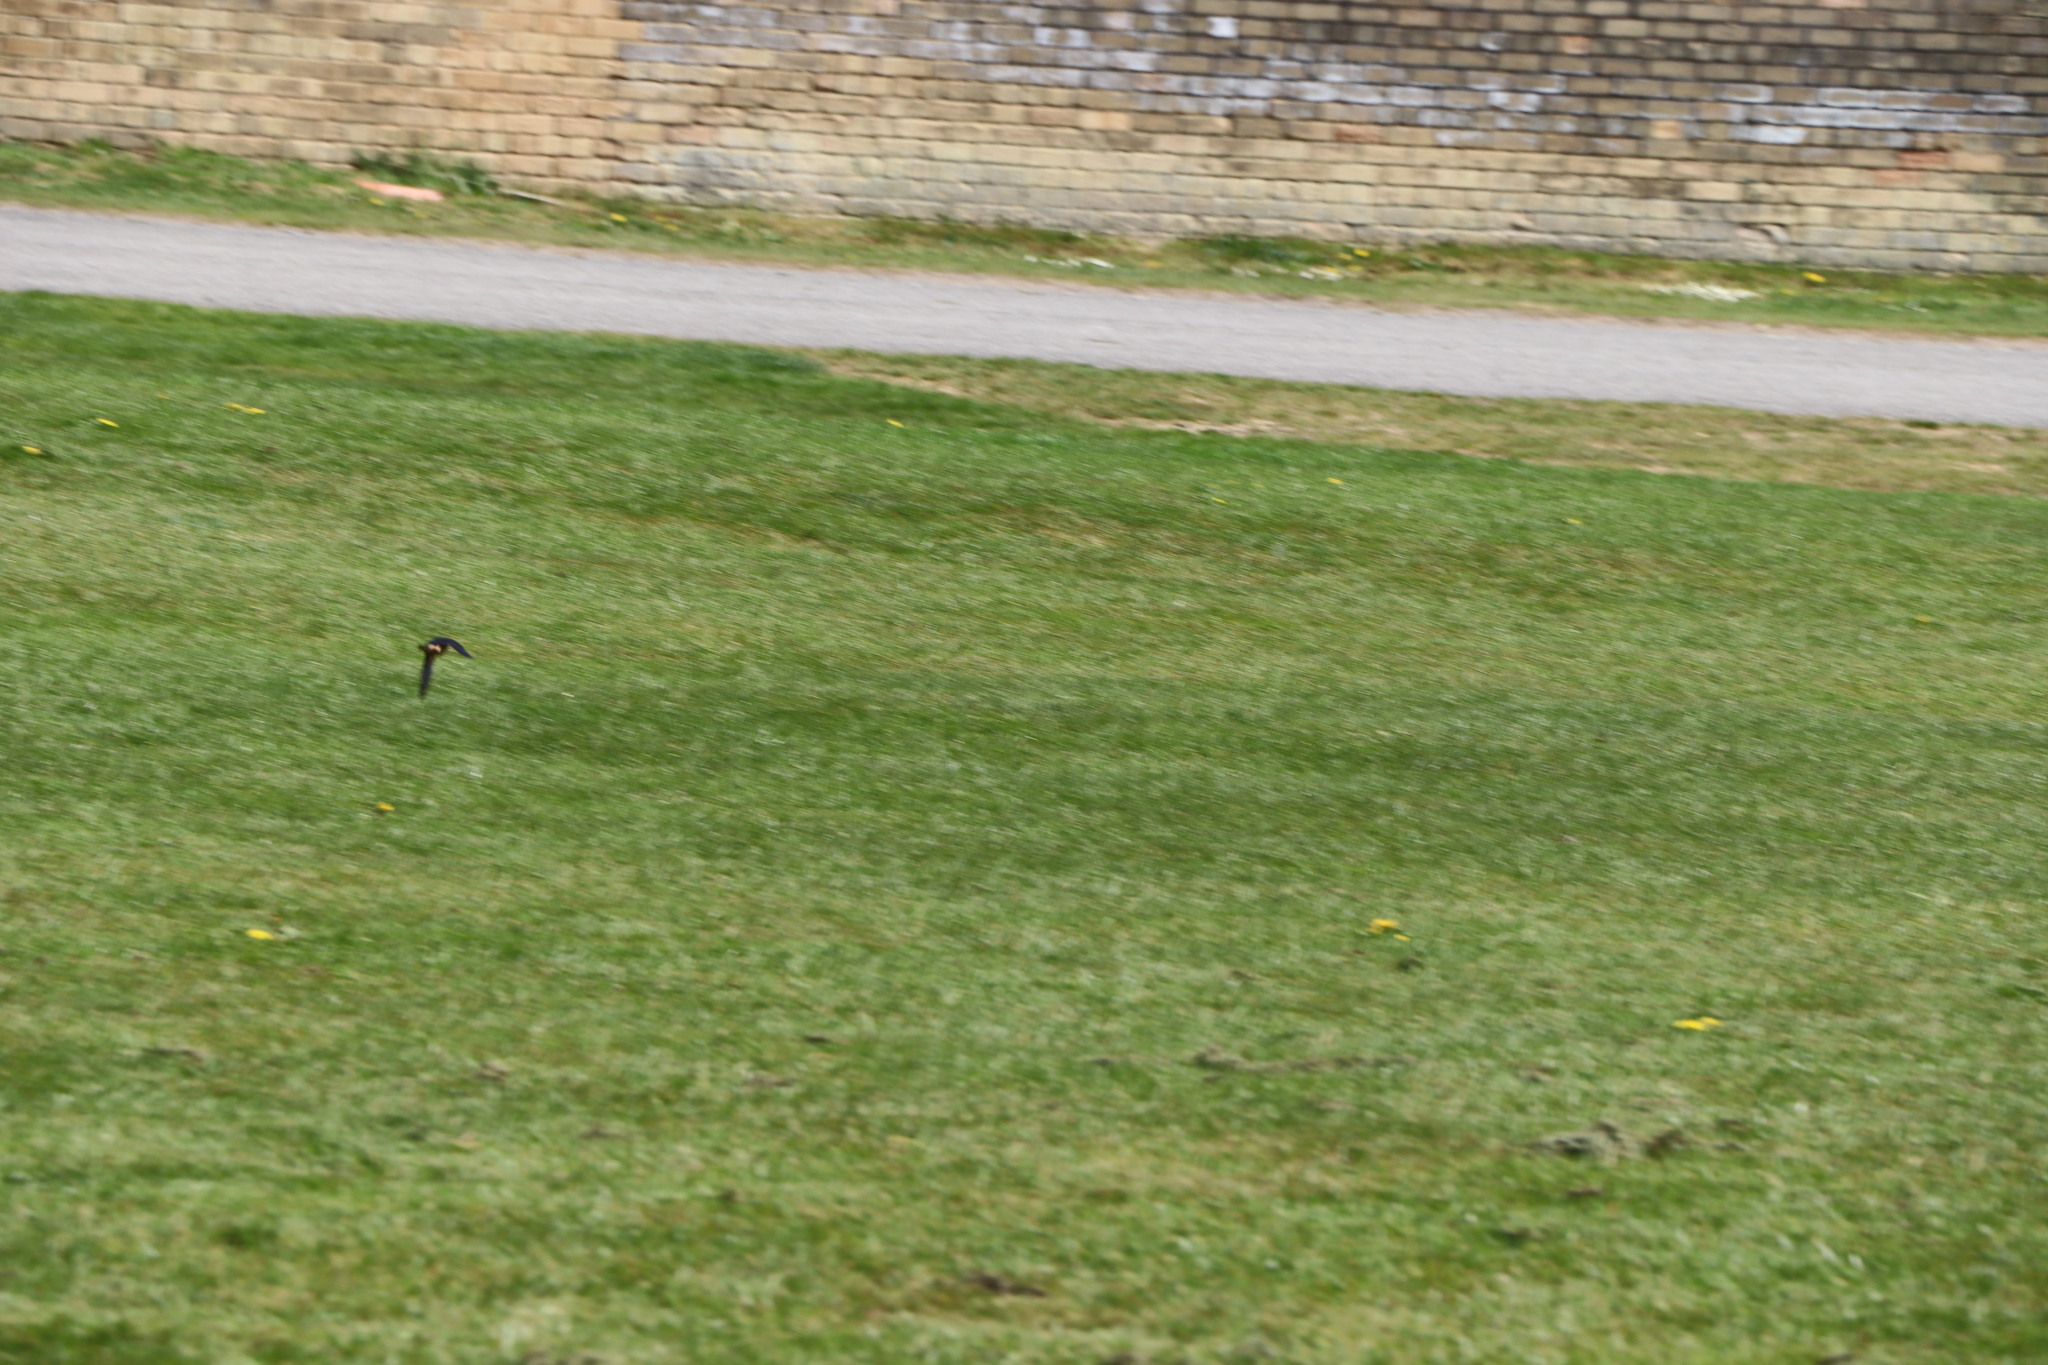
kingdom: Animalia
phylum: Chordata
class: Aves
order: Passeriformes
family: Hirundinidae
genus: Hirundo
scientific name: Hirundo rustica
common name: Barn swallow
